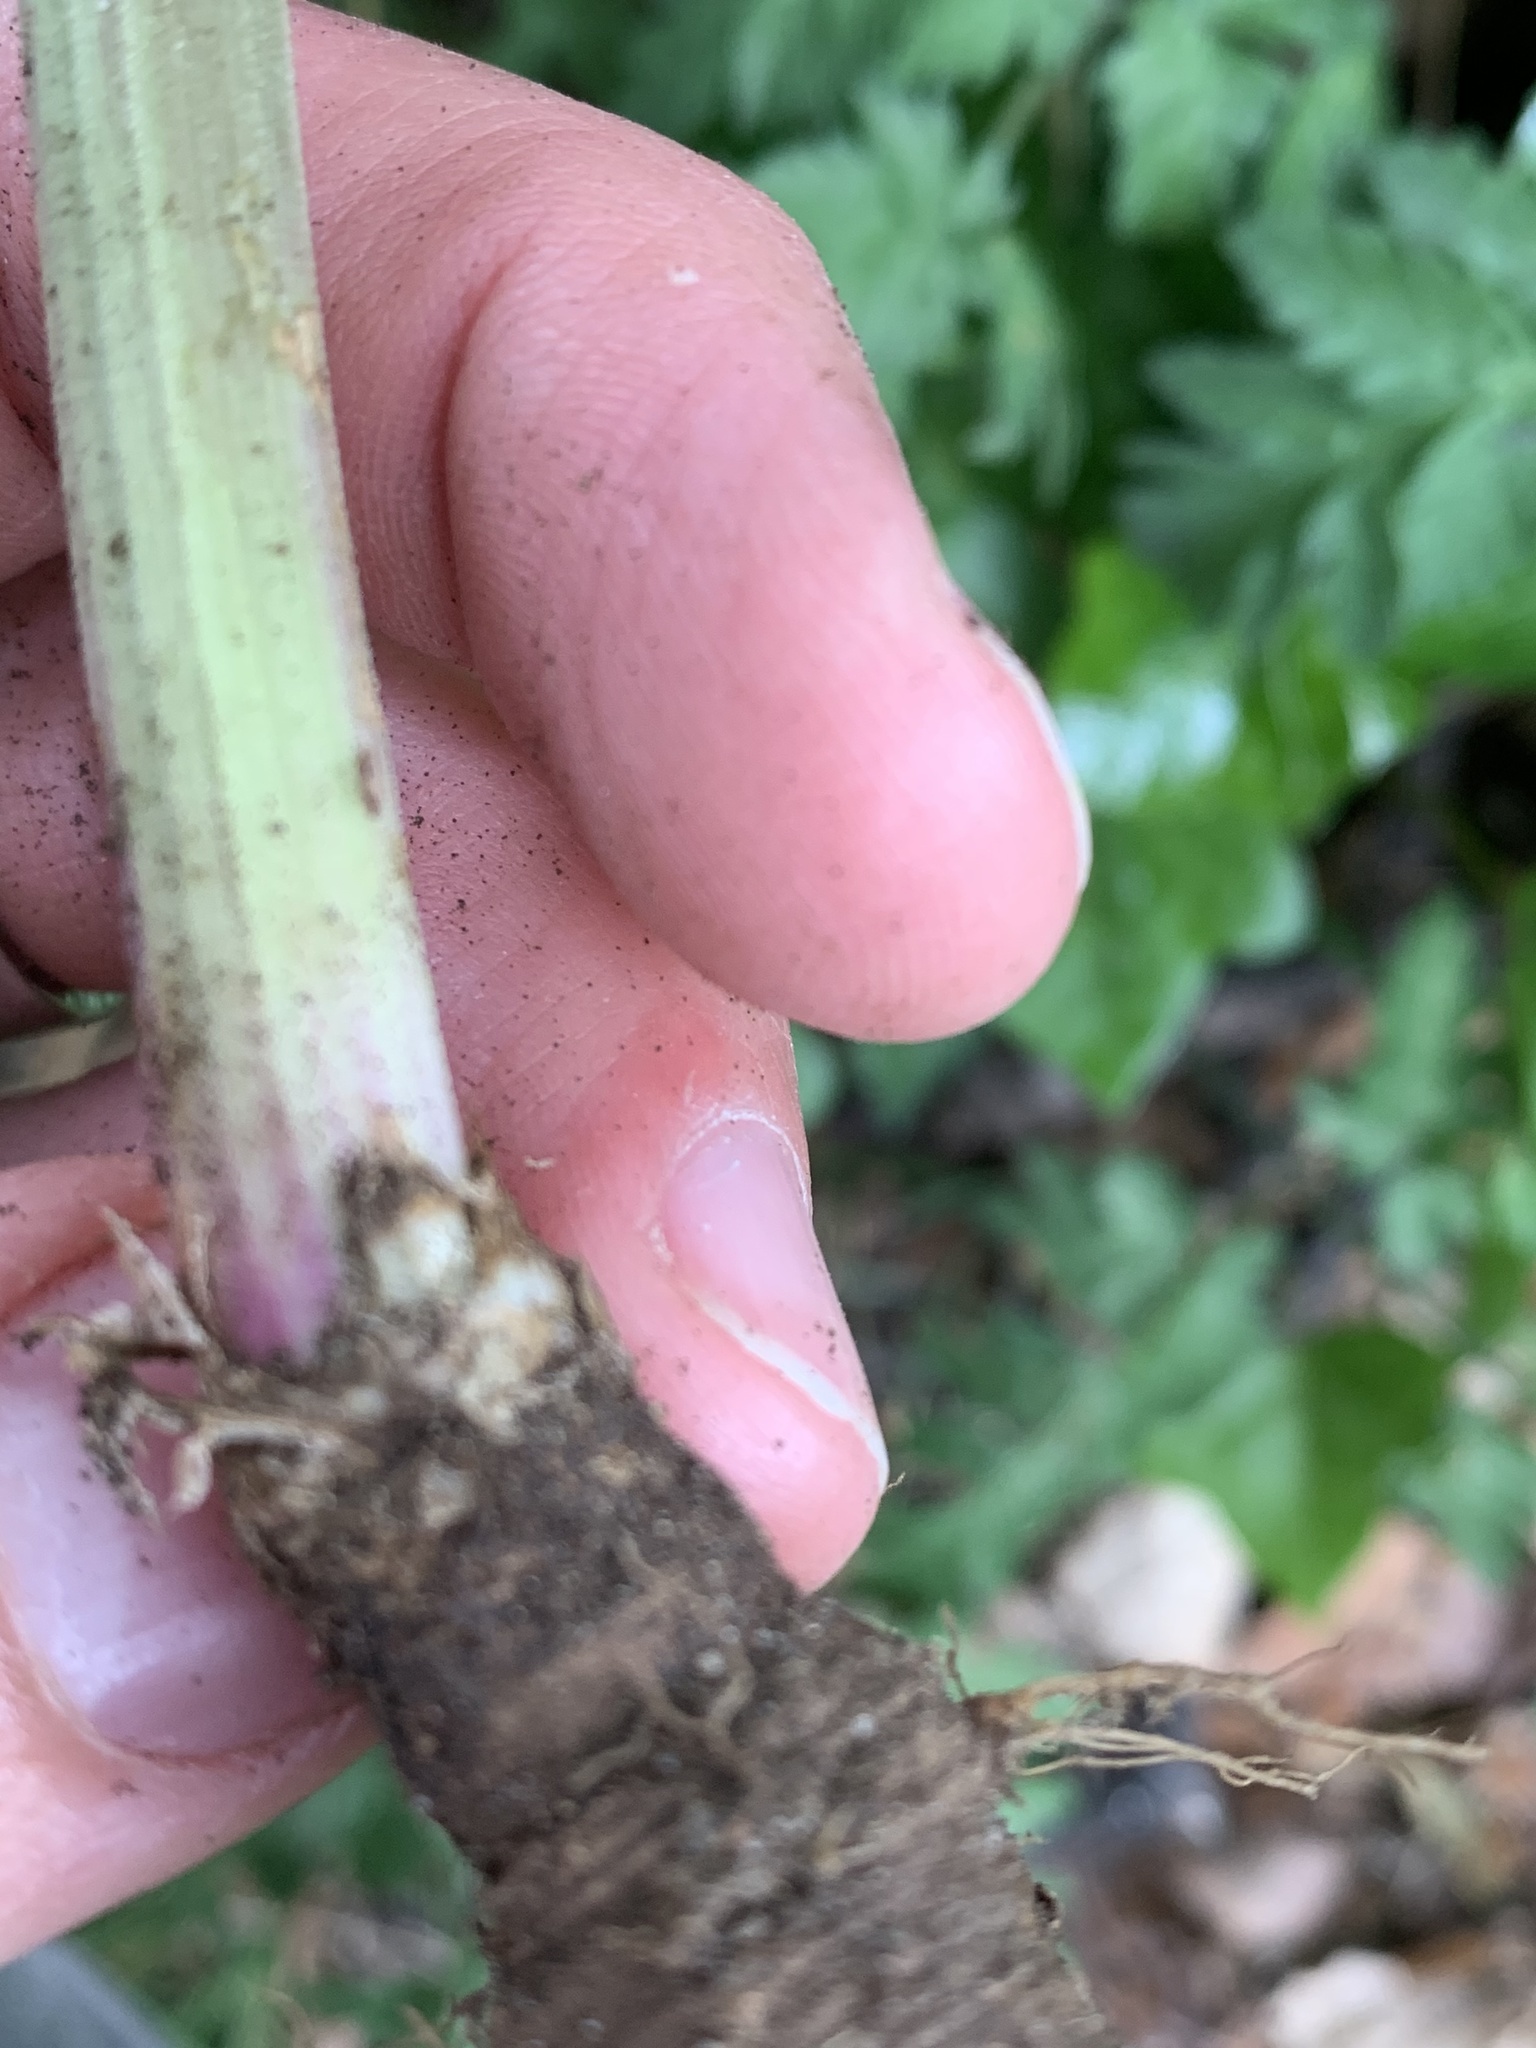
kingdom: Plantae
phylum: Tracheophyta
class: Magnoliopsida
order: Apiales
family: Apiaceae
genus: Anthriscus
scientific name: Anthriscus sylvestris
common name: Cow parsley
